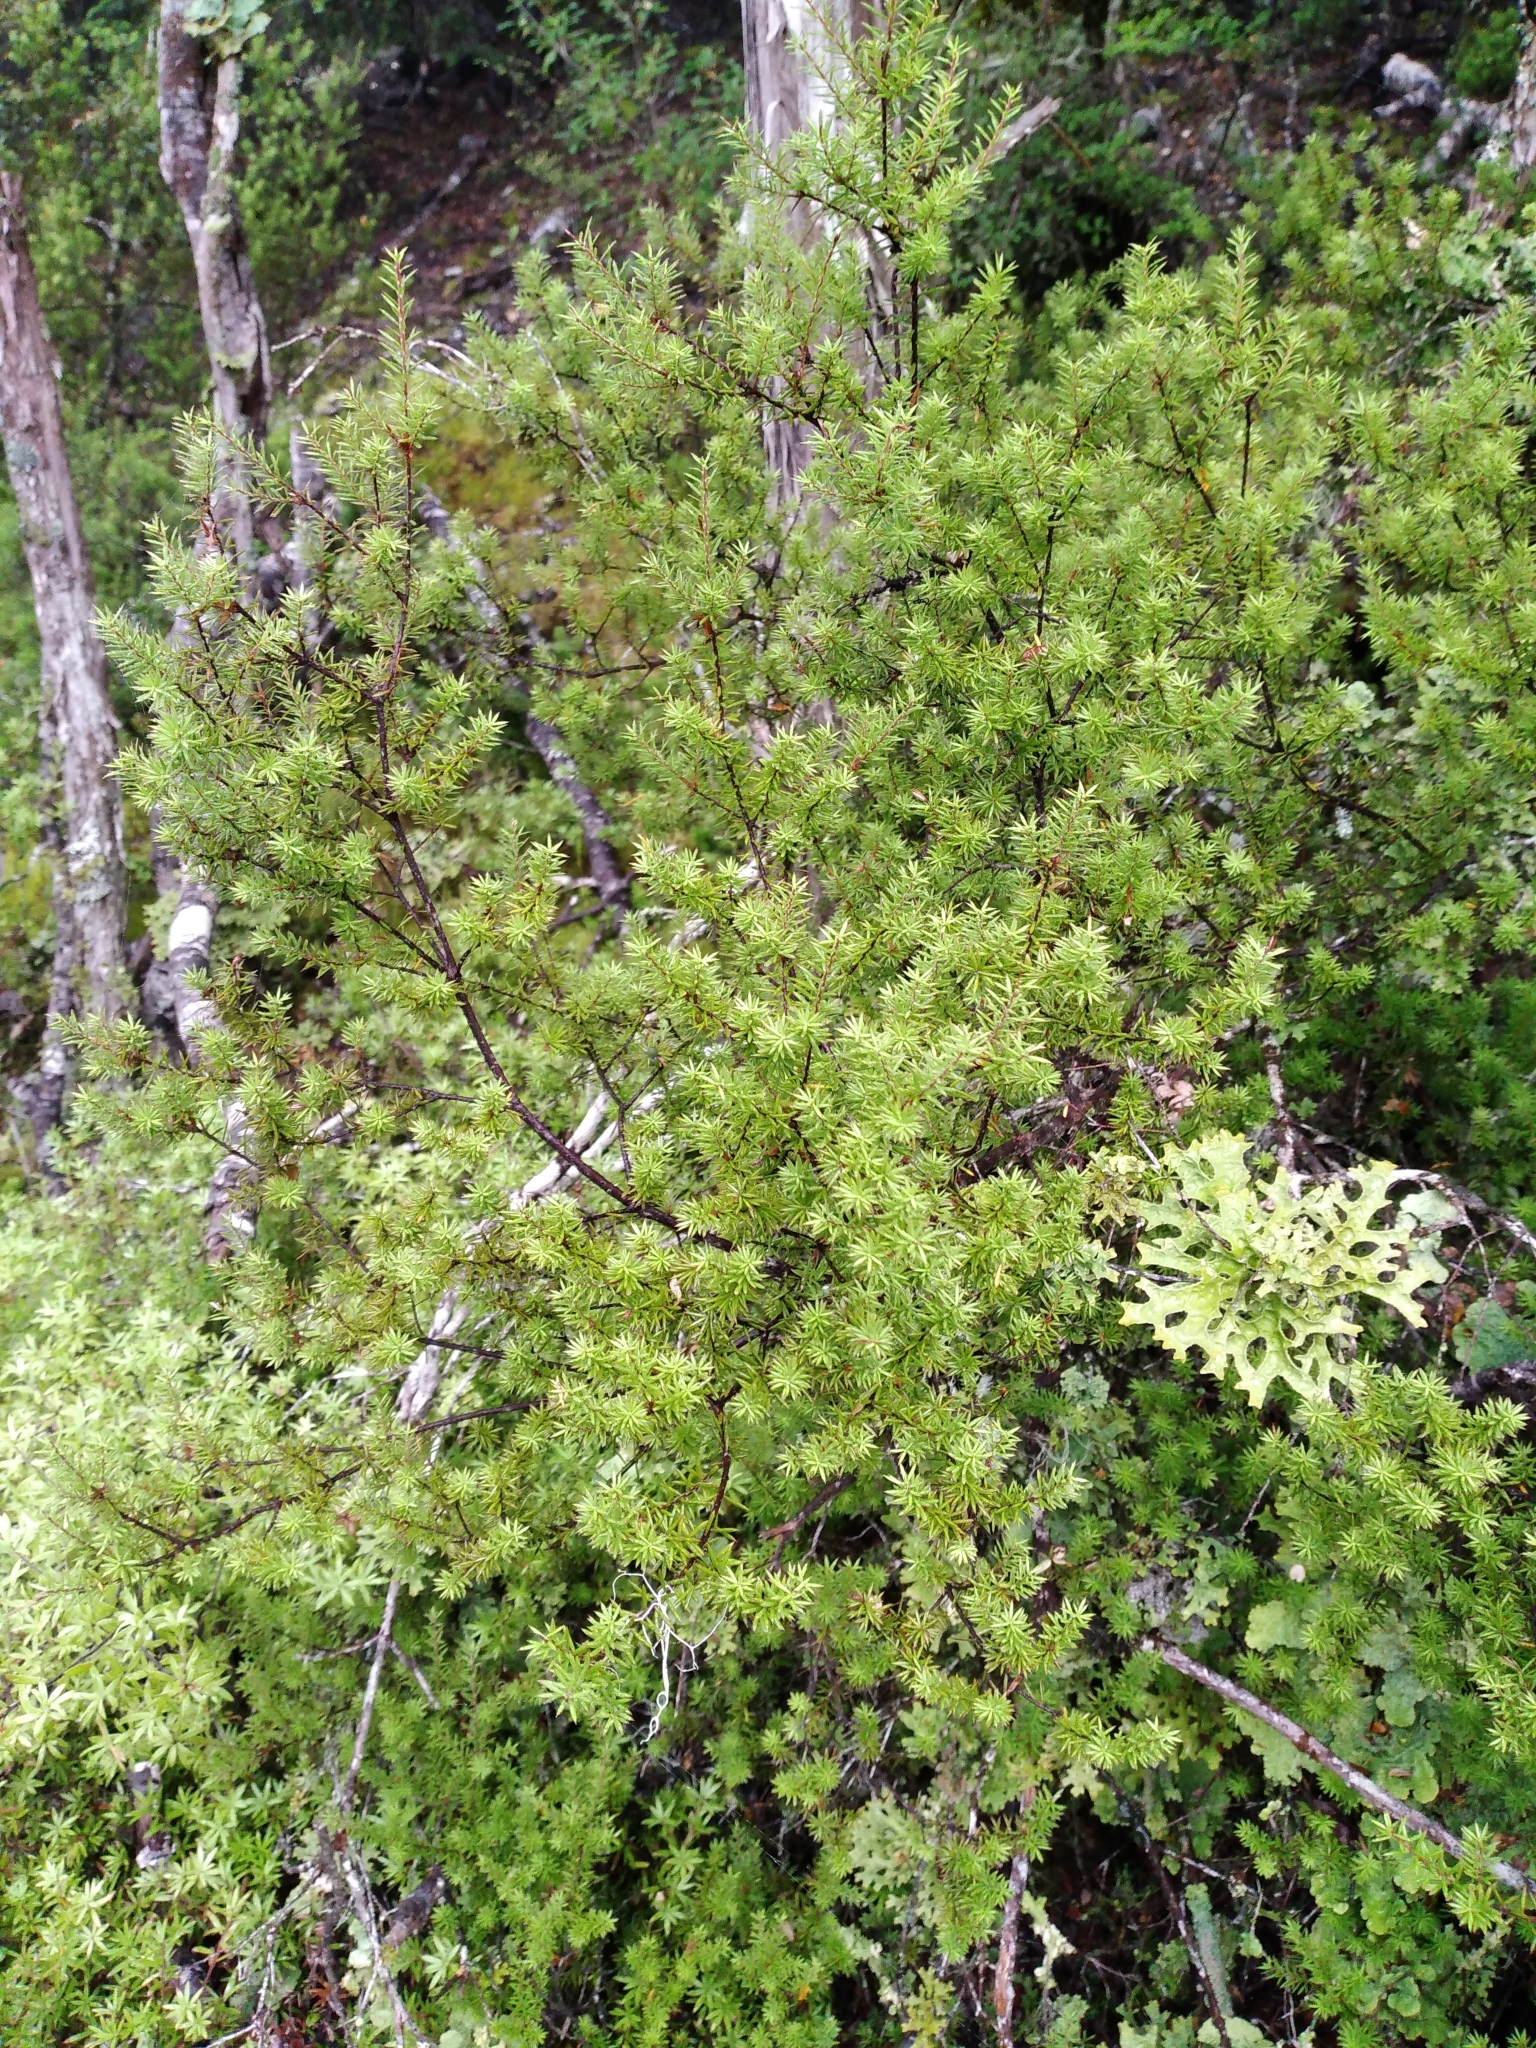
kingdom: Plantae
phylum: Tracheophyta
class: Magnoliopsida
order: Ericales
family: Ericaceae
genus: Leptecophylla
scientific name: Leptecophylla juniperina
